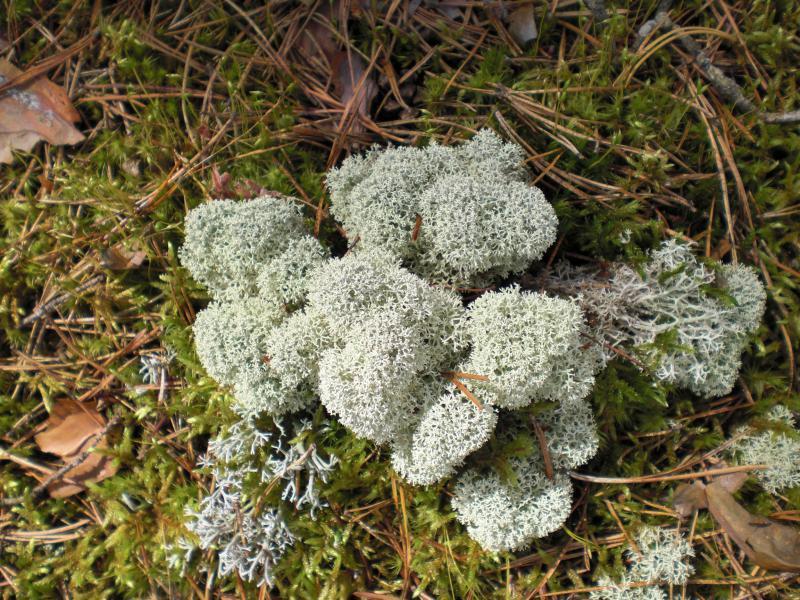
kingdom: Fungi
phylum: Ascomycota
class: Lecanoromycetes
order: Lecanorales
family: Cladoniaceae
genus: Cladonia
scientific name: Cladonia stellaris
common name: Star-tipped reindeer lichen
